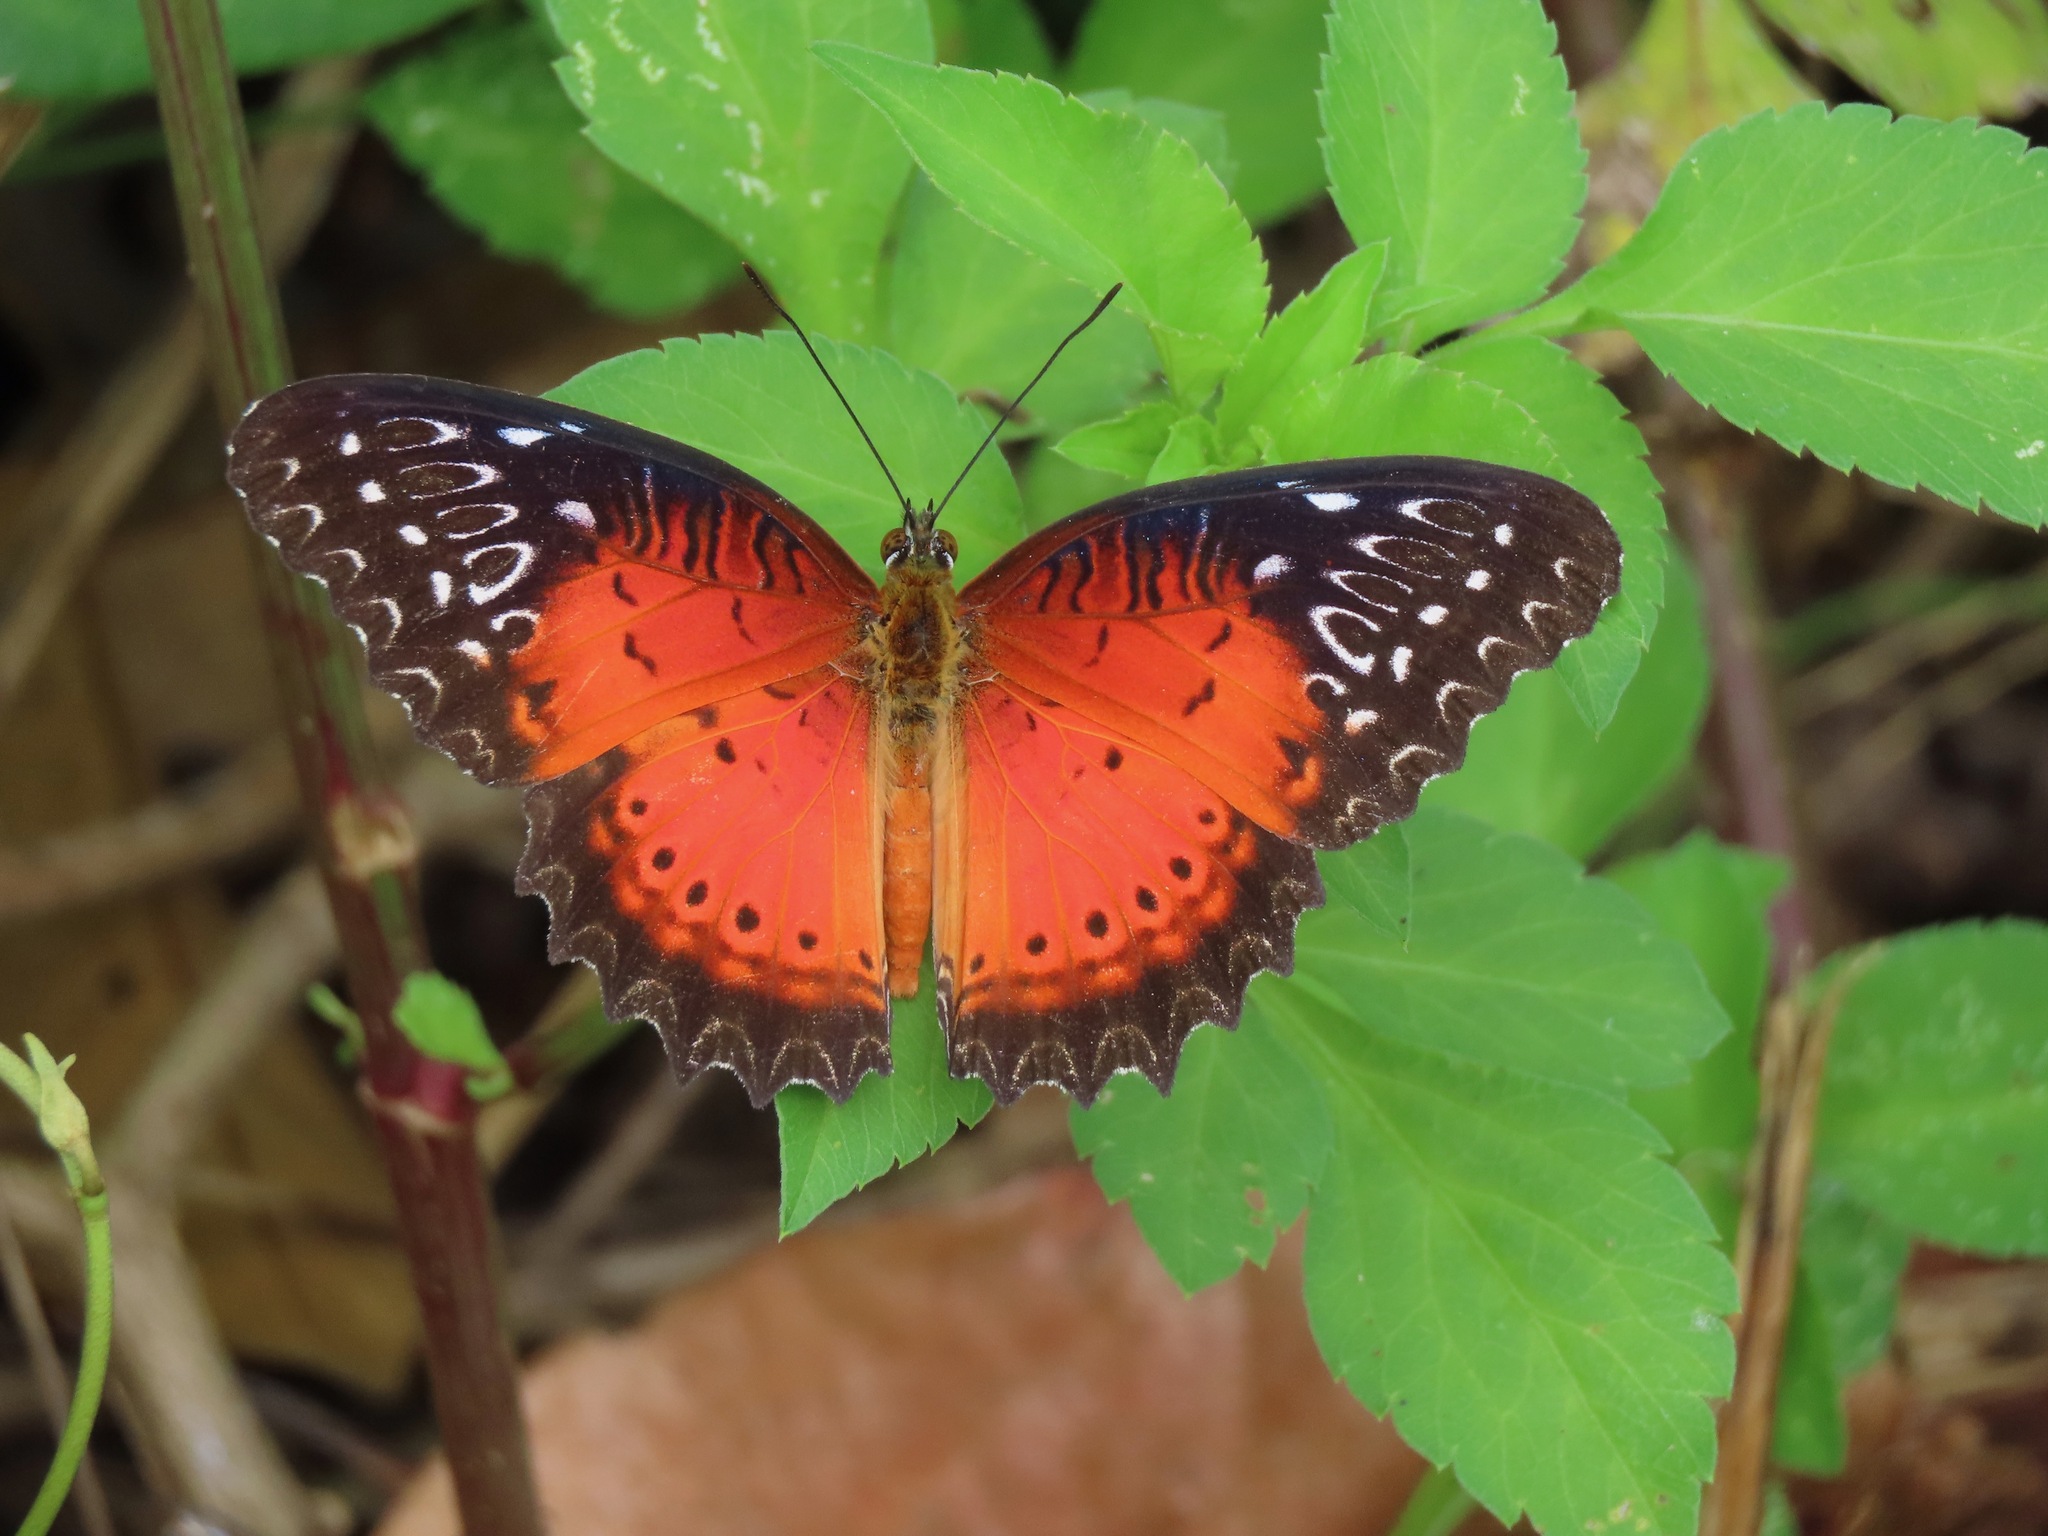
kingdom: Animalia
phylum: Arthropoda
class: Insecta
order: Lepidoptera
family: Nymphalidae
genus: Cethosia
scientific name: Cethosia biblis
